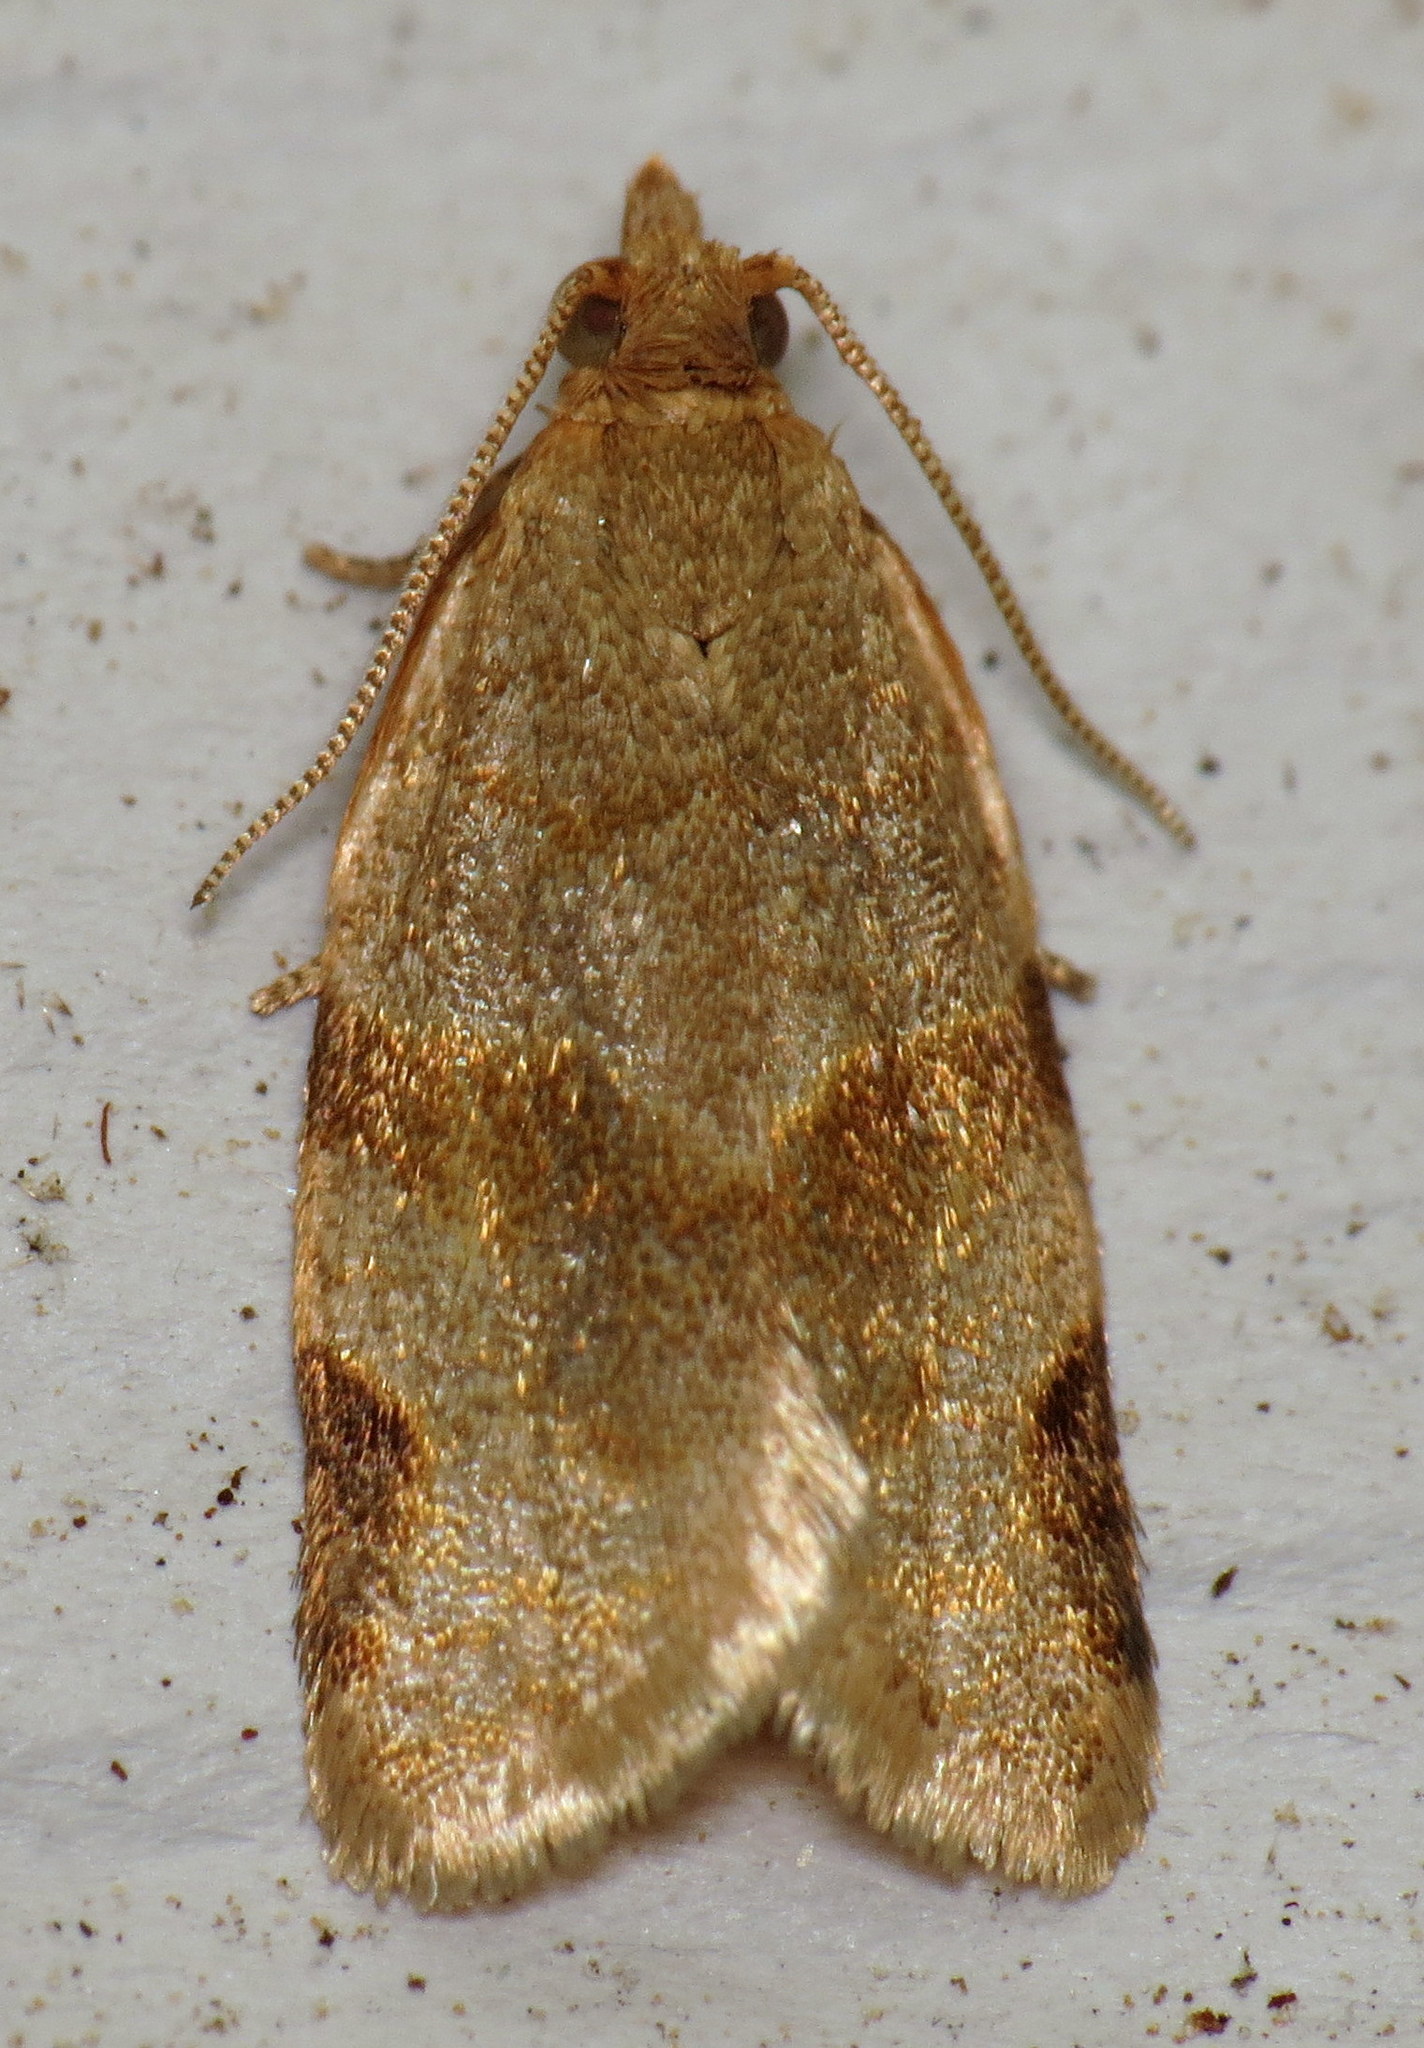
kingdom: Animalia
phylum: Arthropoda
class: Insecta
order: Lepidoptera
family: Tortricidae
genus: Clepsis
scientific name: Clepsis virescana
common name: Greenish apple moth
